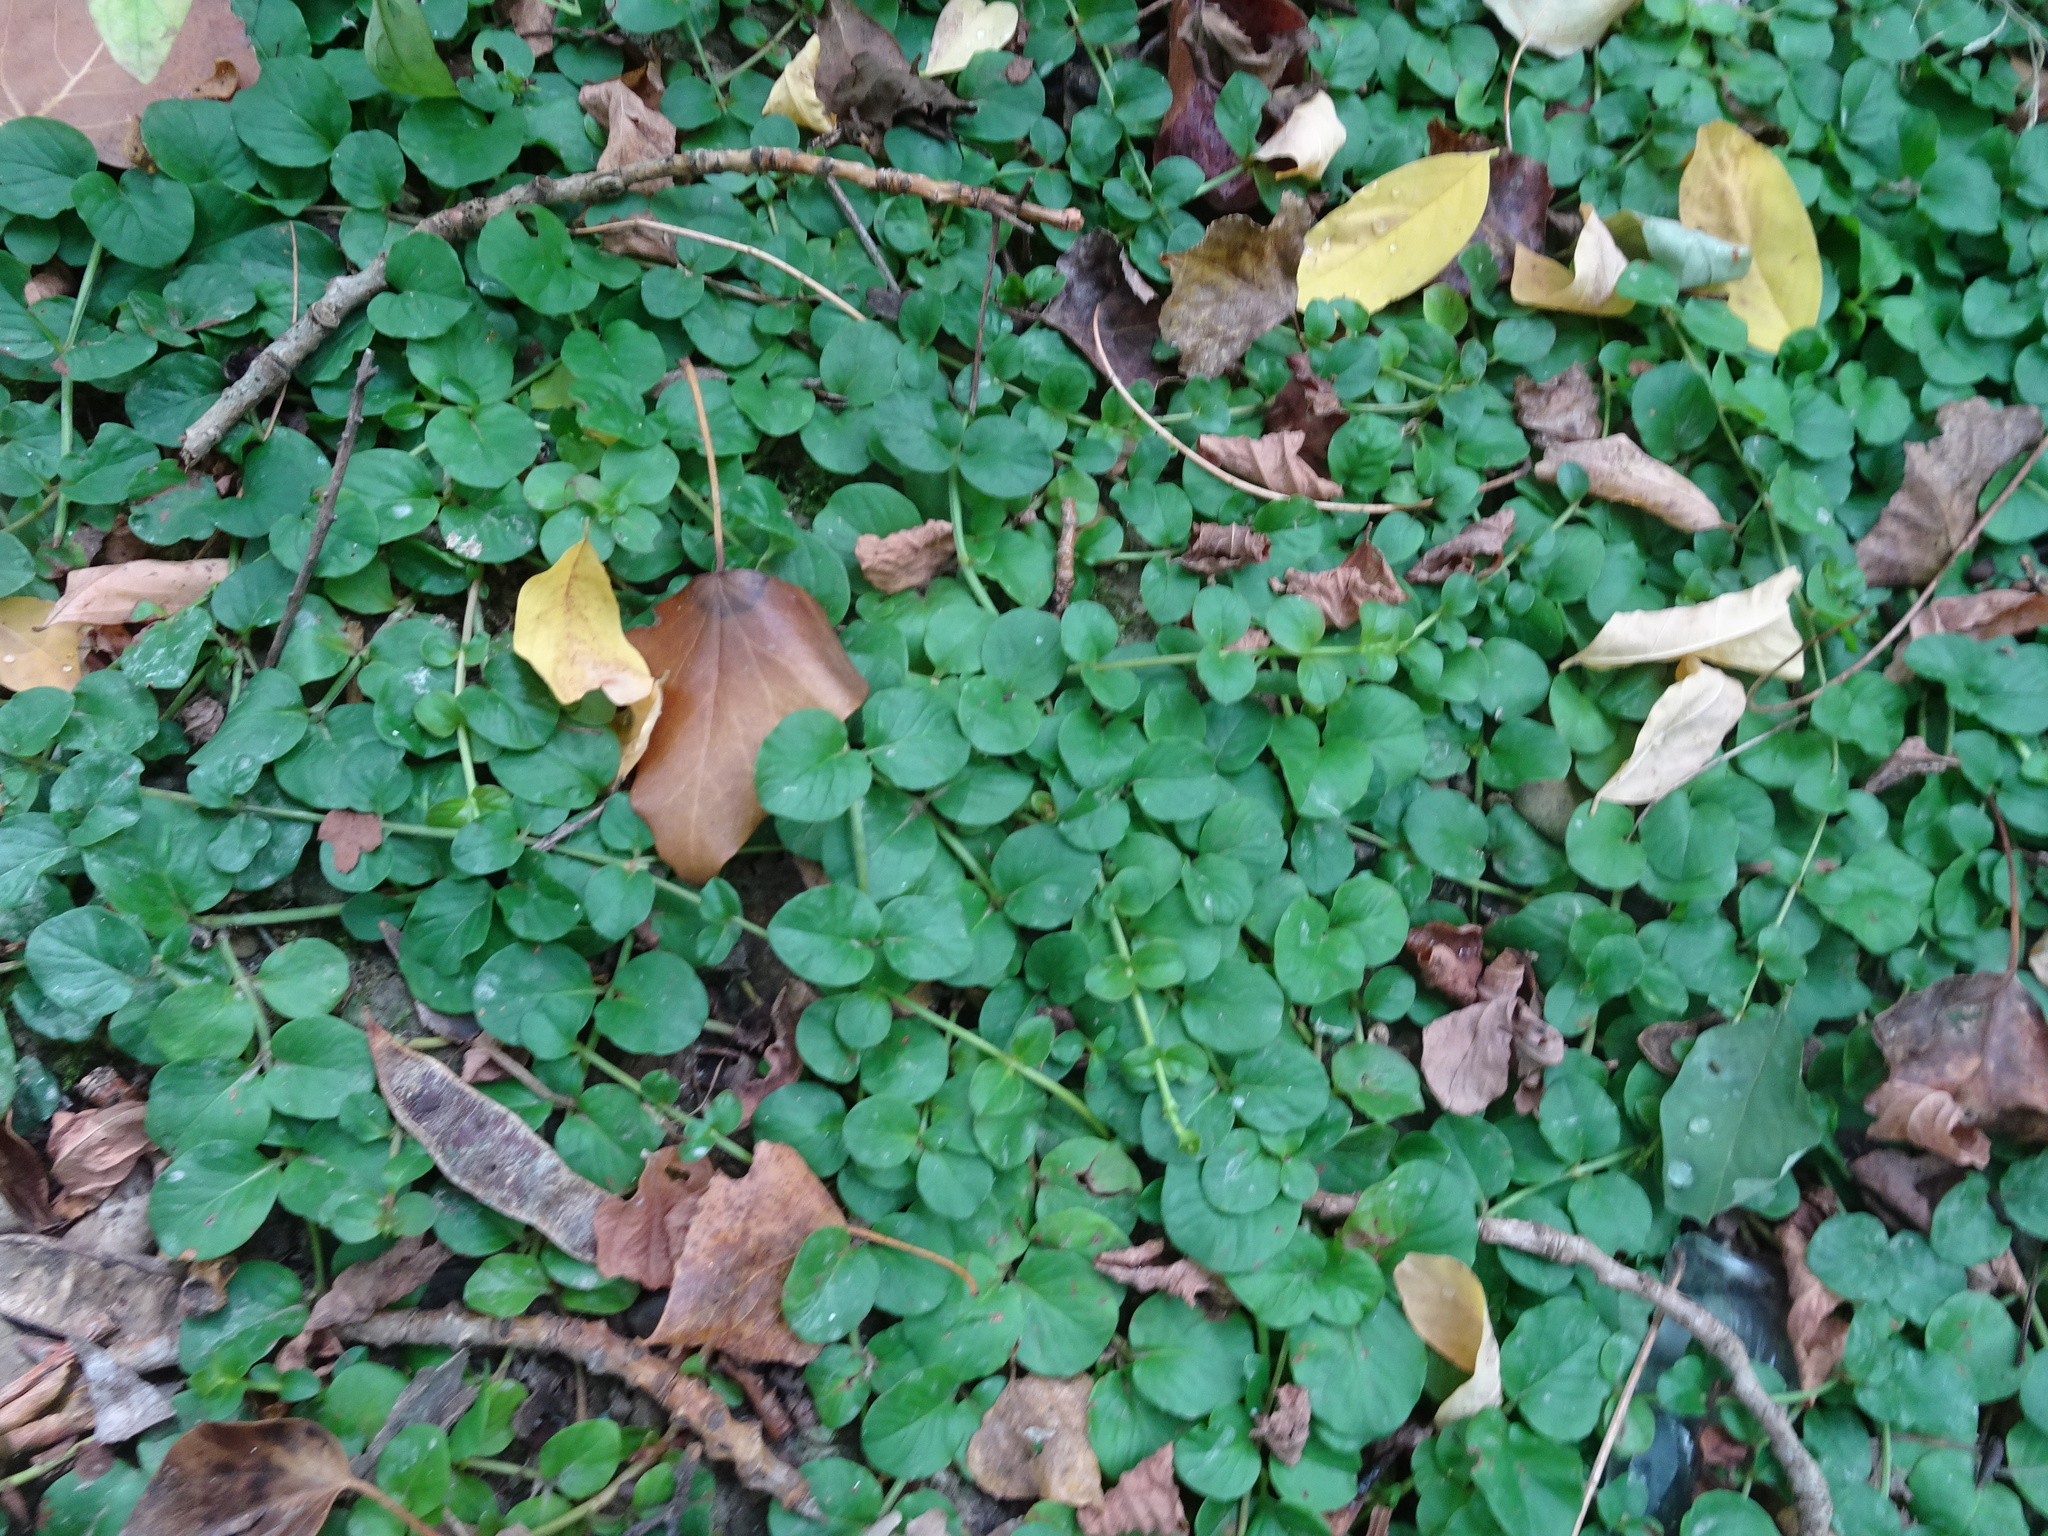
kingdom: Plantae
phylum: Tracheophyta
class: Magnoliopsida
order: Ericales
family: Primulaceae
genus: Lysimachia
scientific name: Lysimachia nummularia
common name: Moneywort
